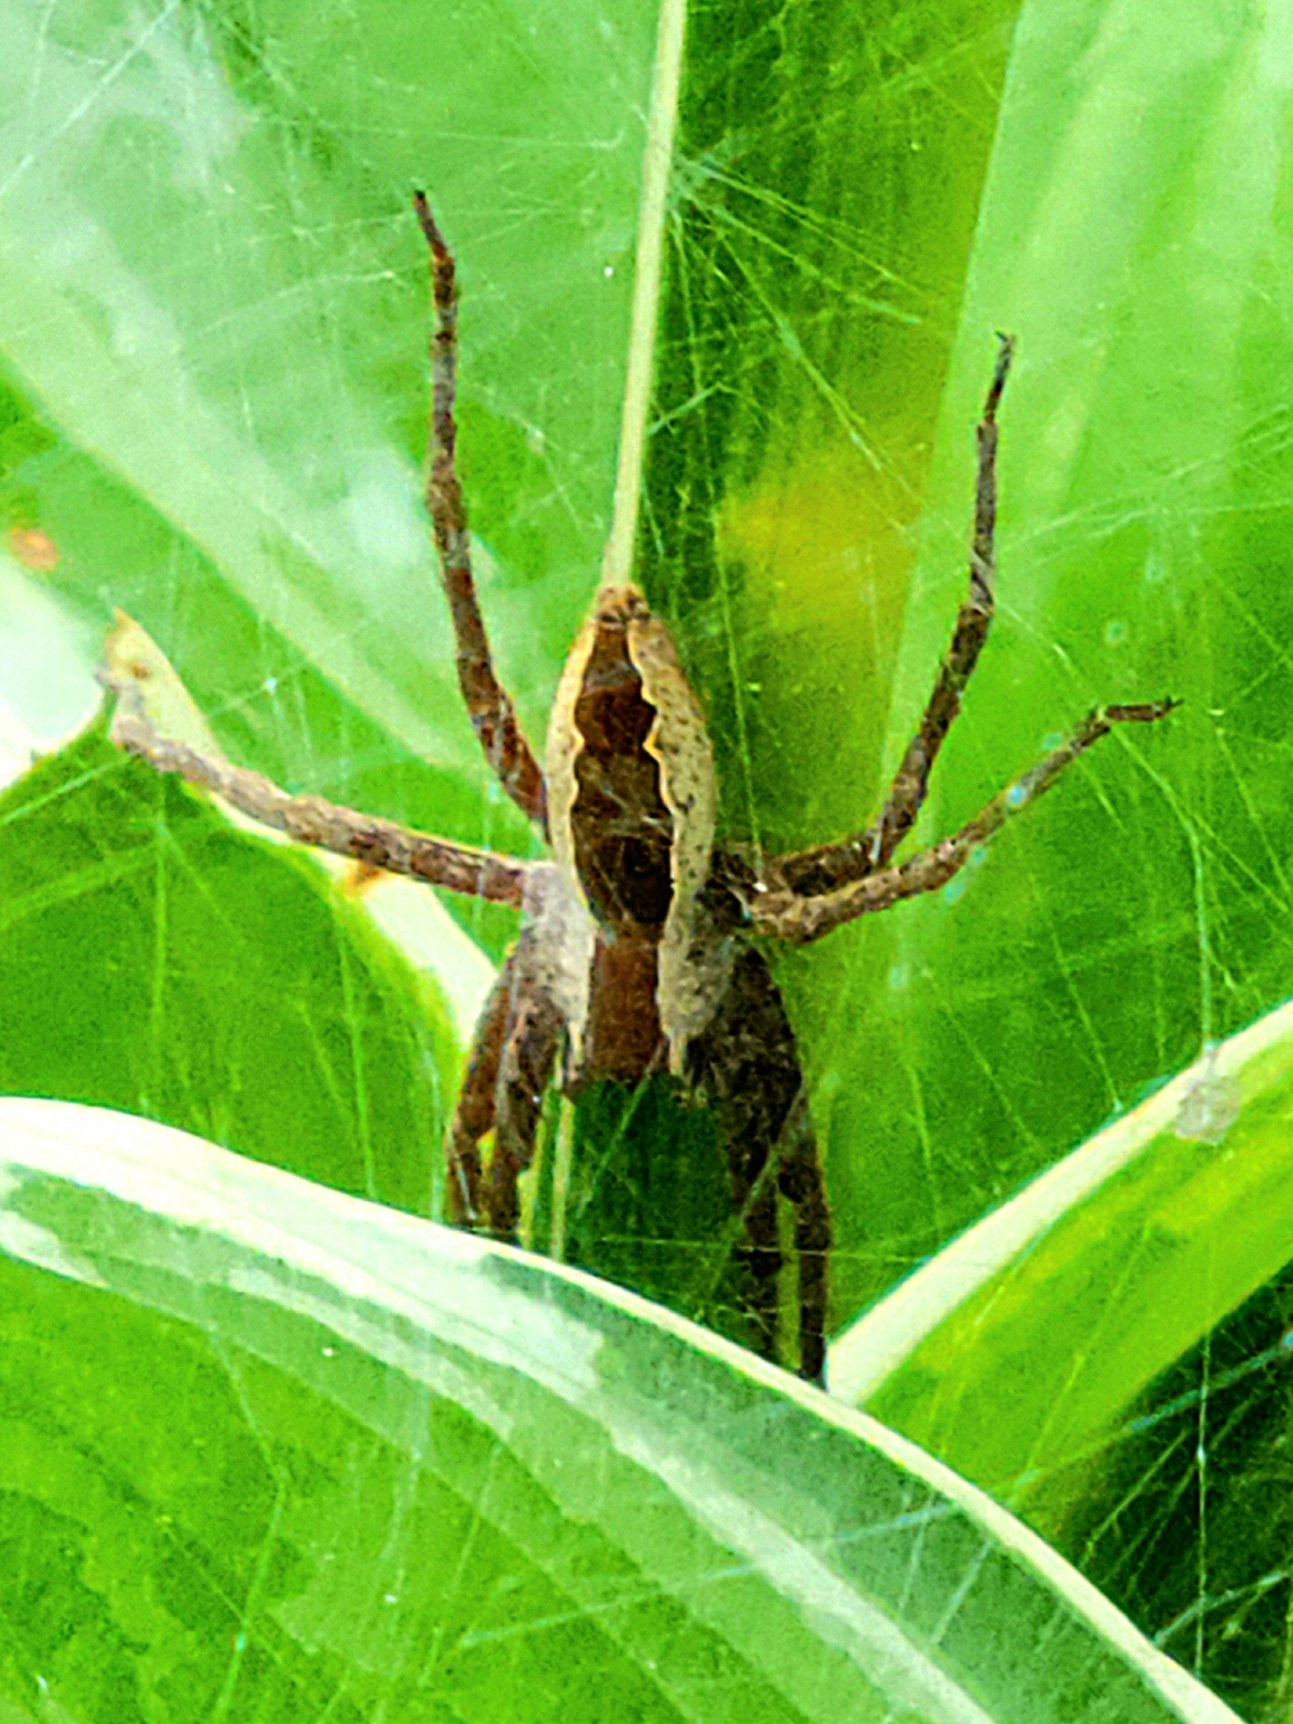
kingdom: Animalia
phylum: Arthropoda
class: Arachnida
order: Araneae
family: Pisauridae
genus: Pisaurina
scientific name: Pisaurina mira
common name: American nursery web spider
